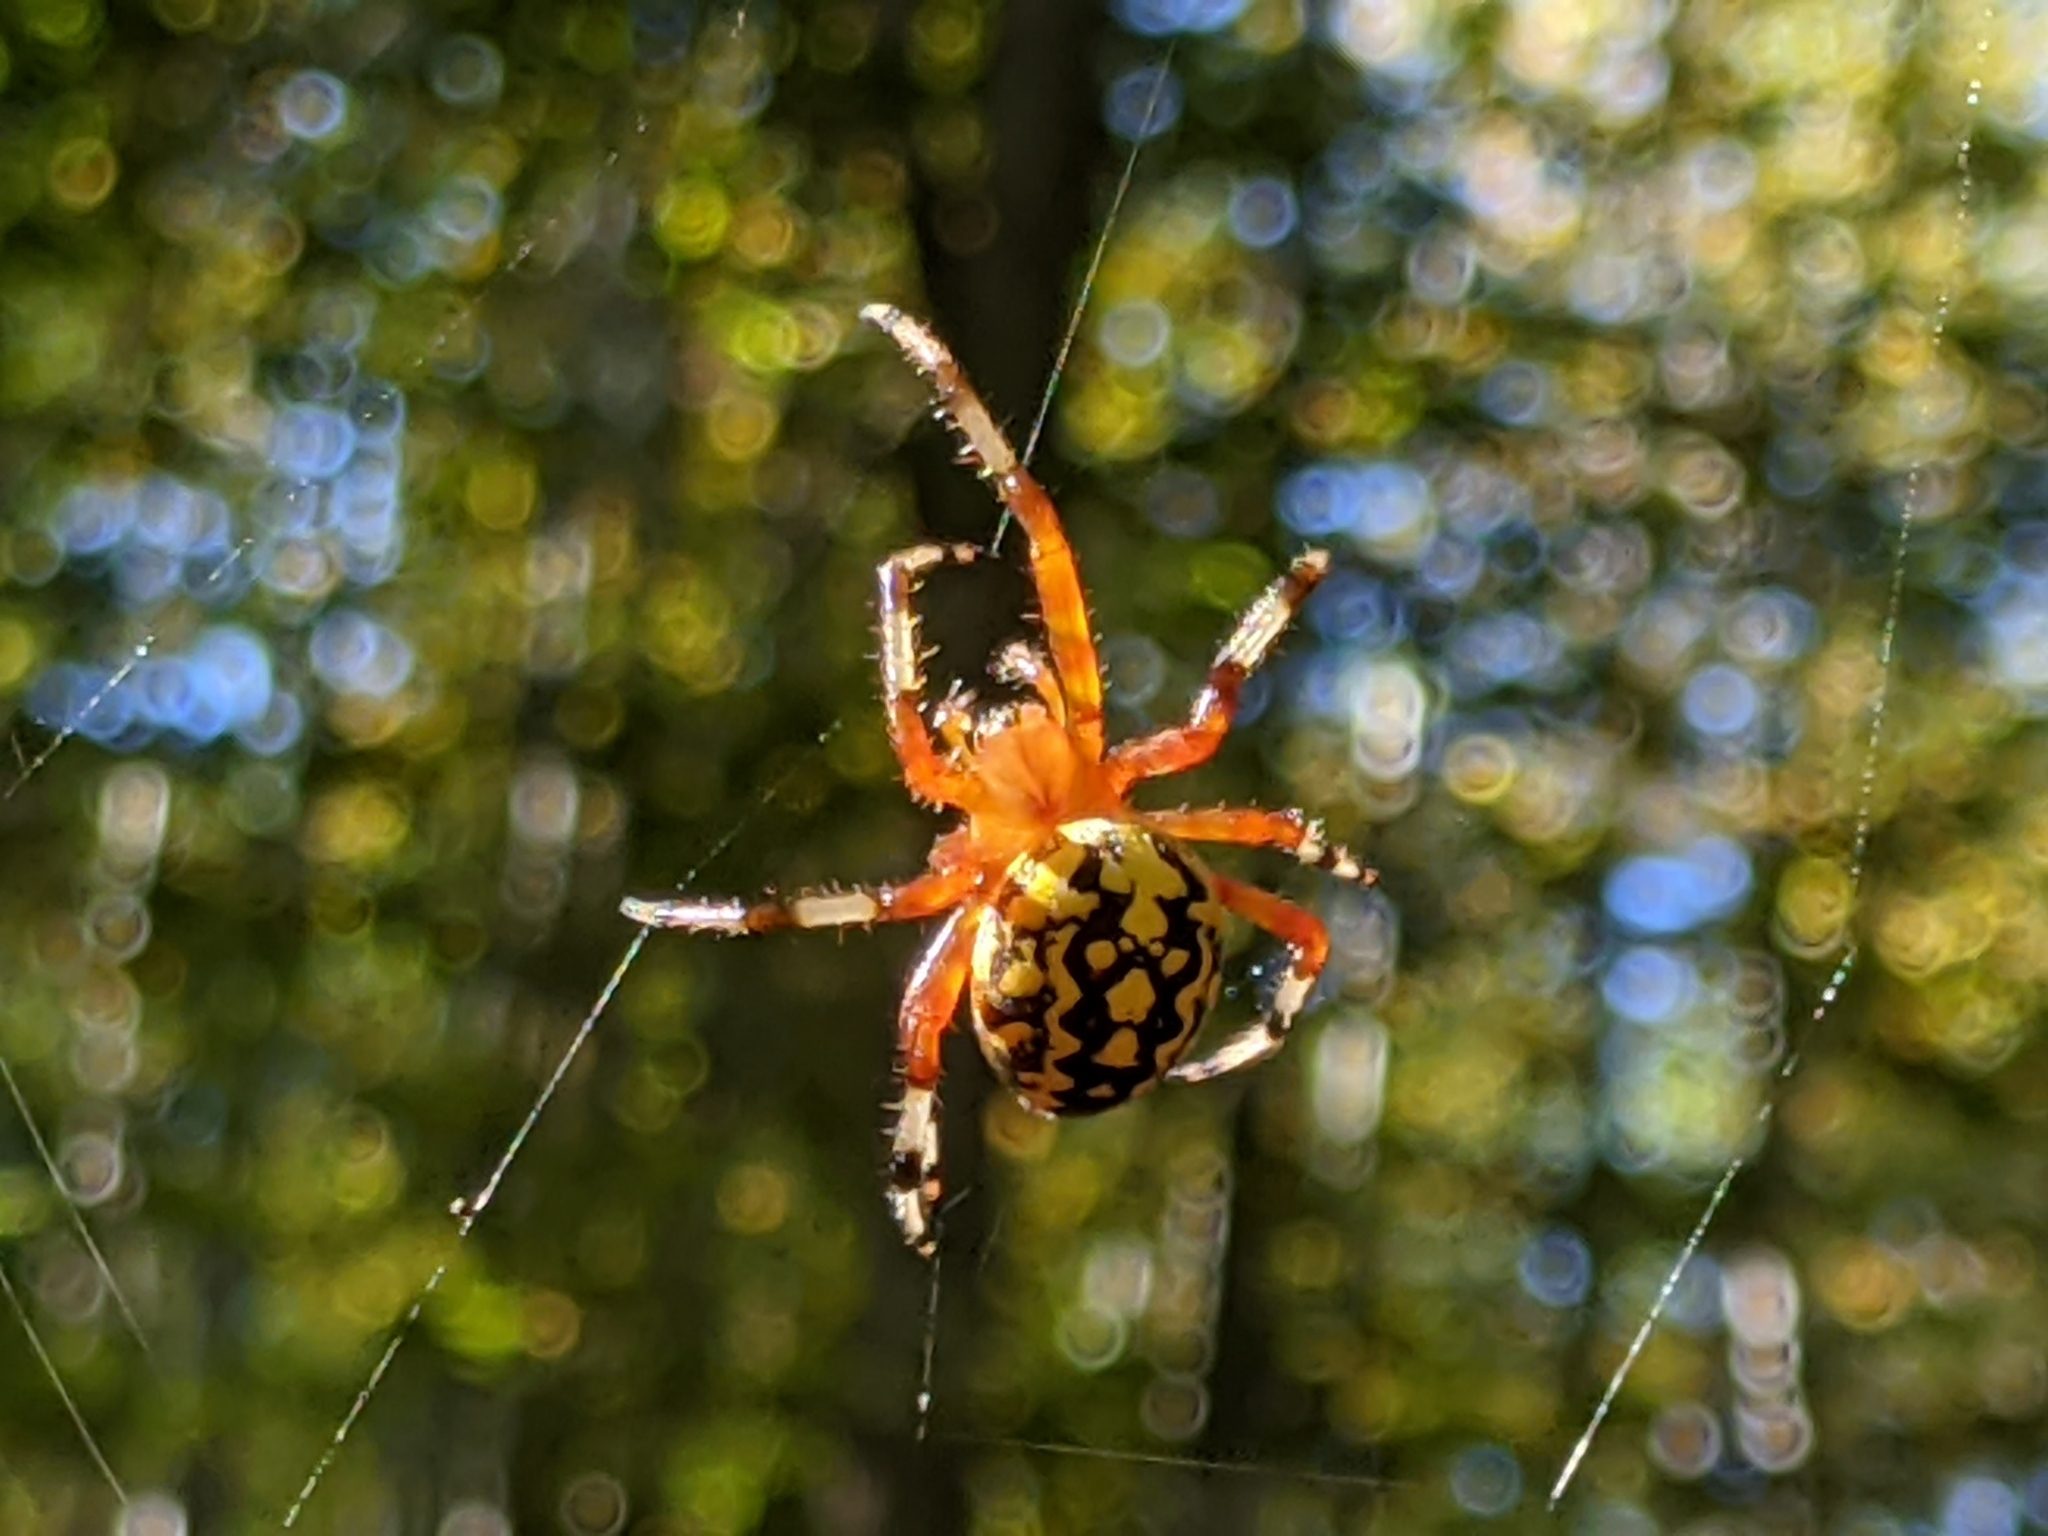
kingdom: Animalia
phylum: Arthropoda
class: Arachnida
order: Araneae
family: Araneidae
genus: Araneus
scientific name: Araneus marmoreus
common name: Marbled orbweaver
